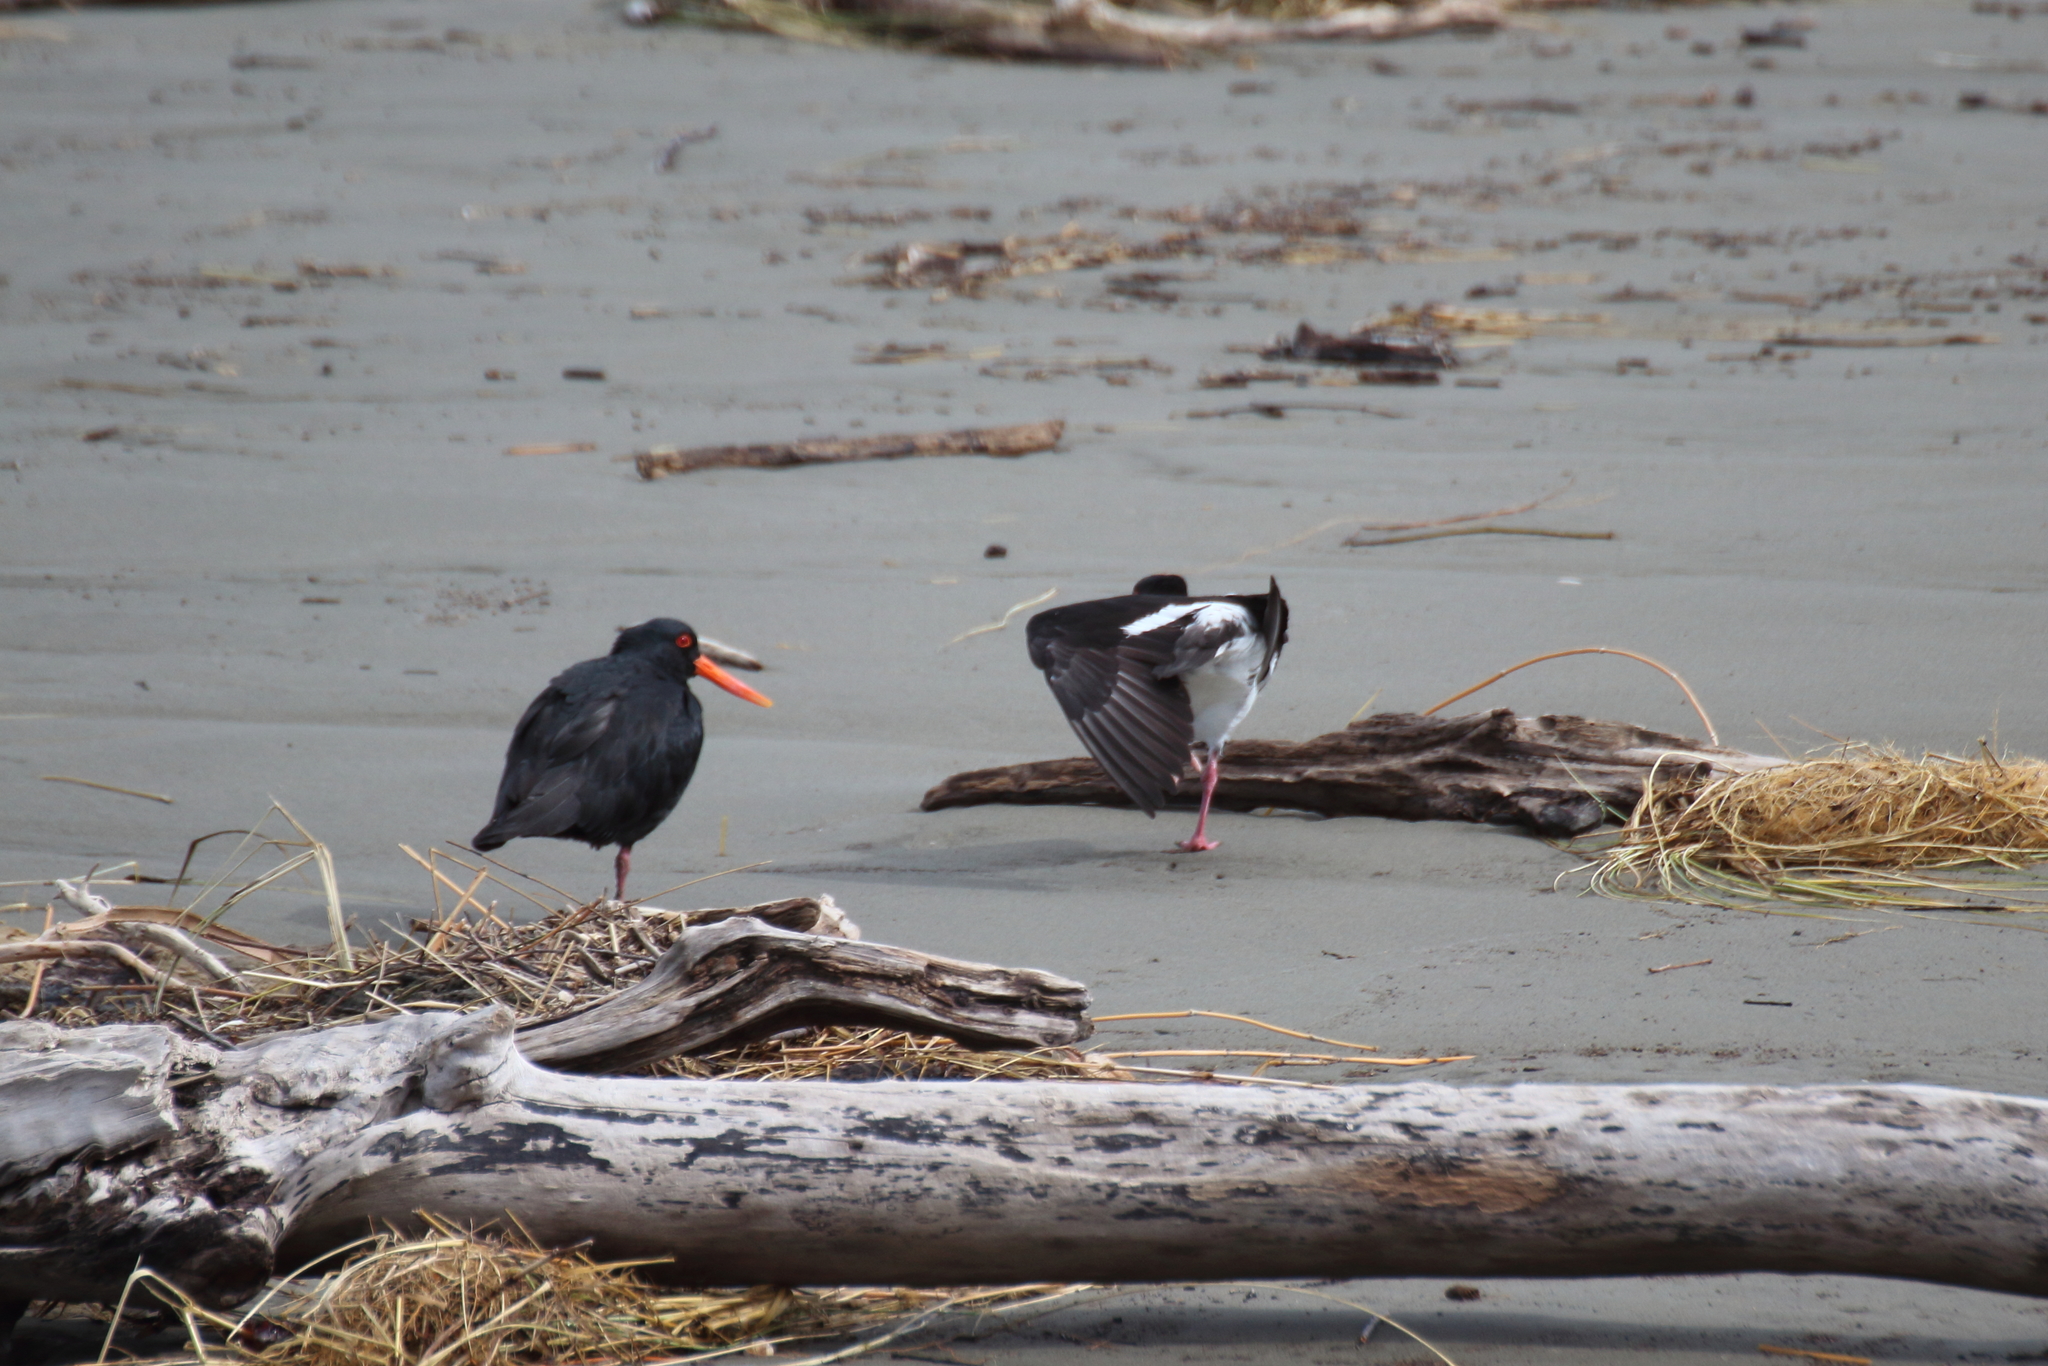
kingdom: Animalia
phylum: Chordata
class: Aves
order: Charadriiformes
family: Haematopodidae
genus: Haematopus
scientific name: Haematopus unicolor
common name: Variable oystercatcher
